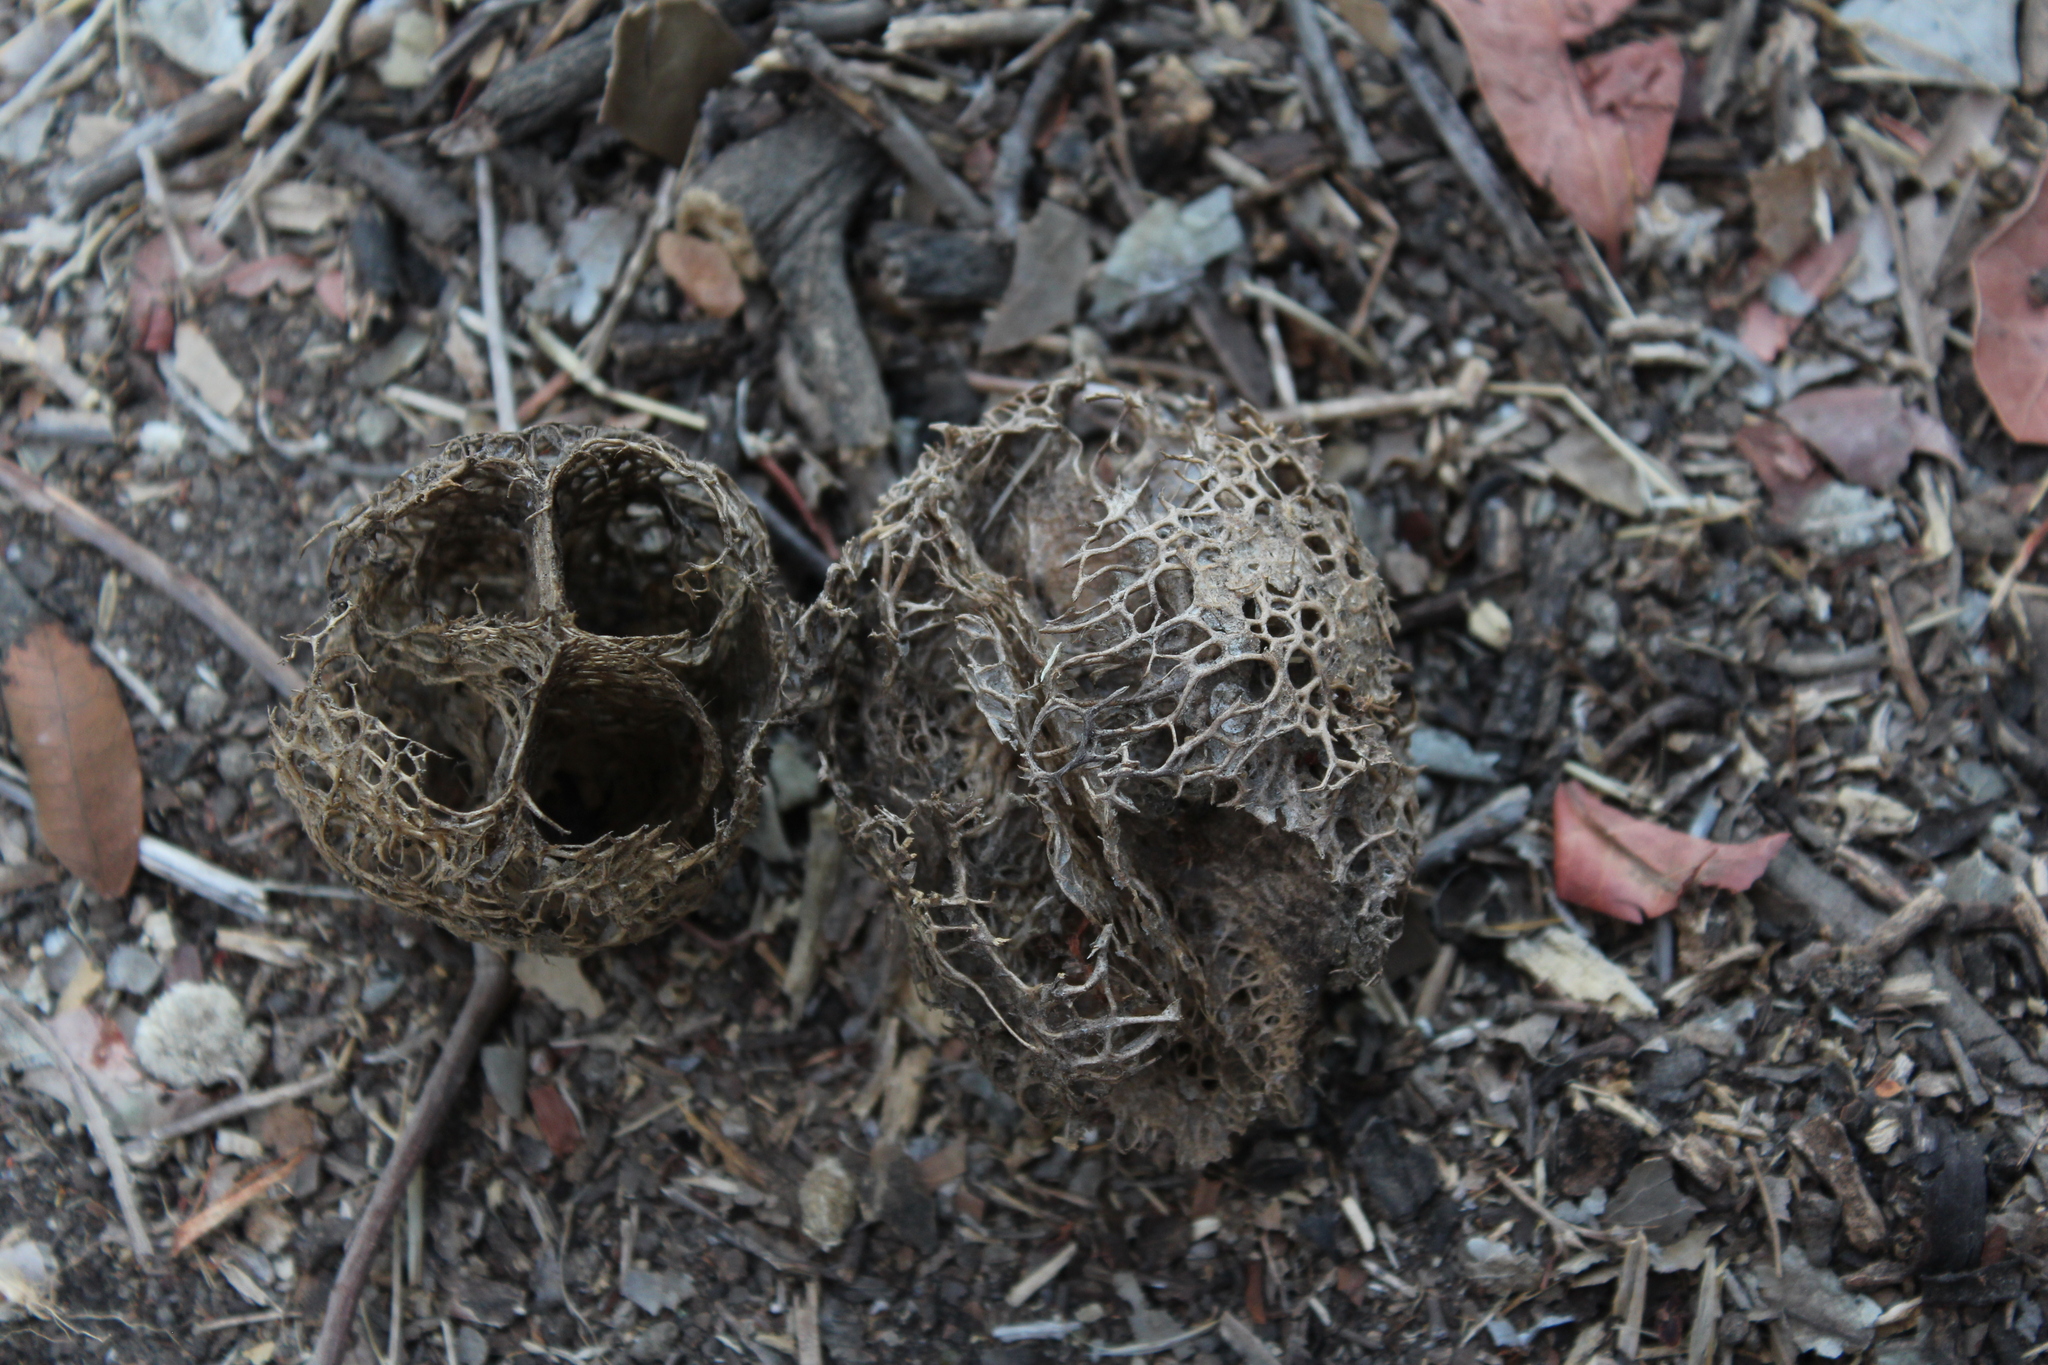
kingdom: Plantae
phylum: Tracheophyta
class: Magnoliopsida
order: Cucurbitales
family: Cucurbitaceae
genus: Marah
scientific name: Marah macrocarpa
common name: Cucamonga manroot
